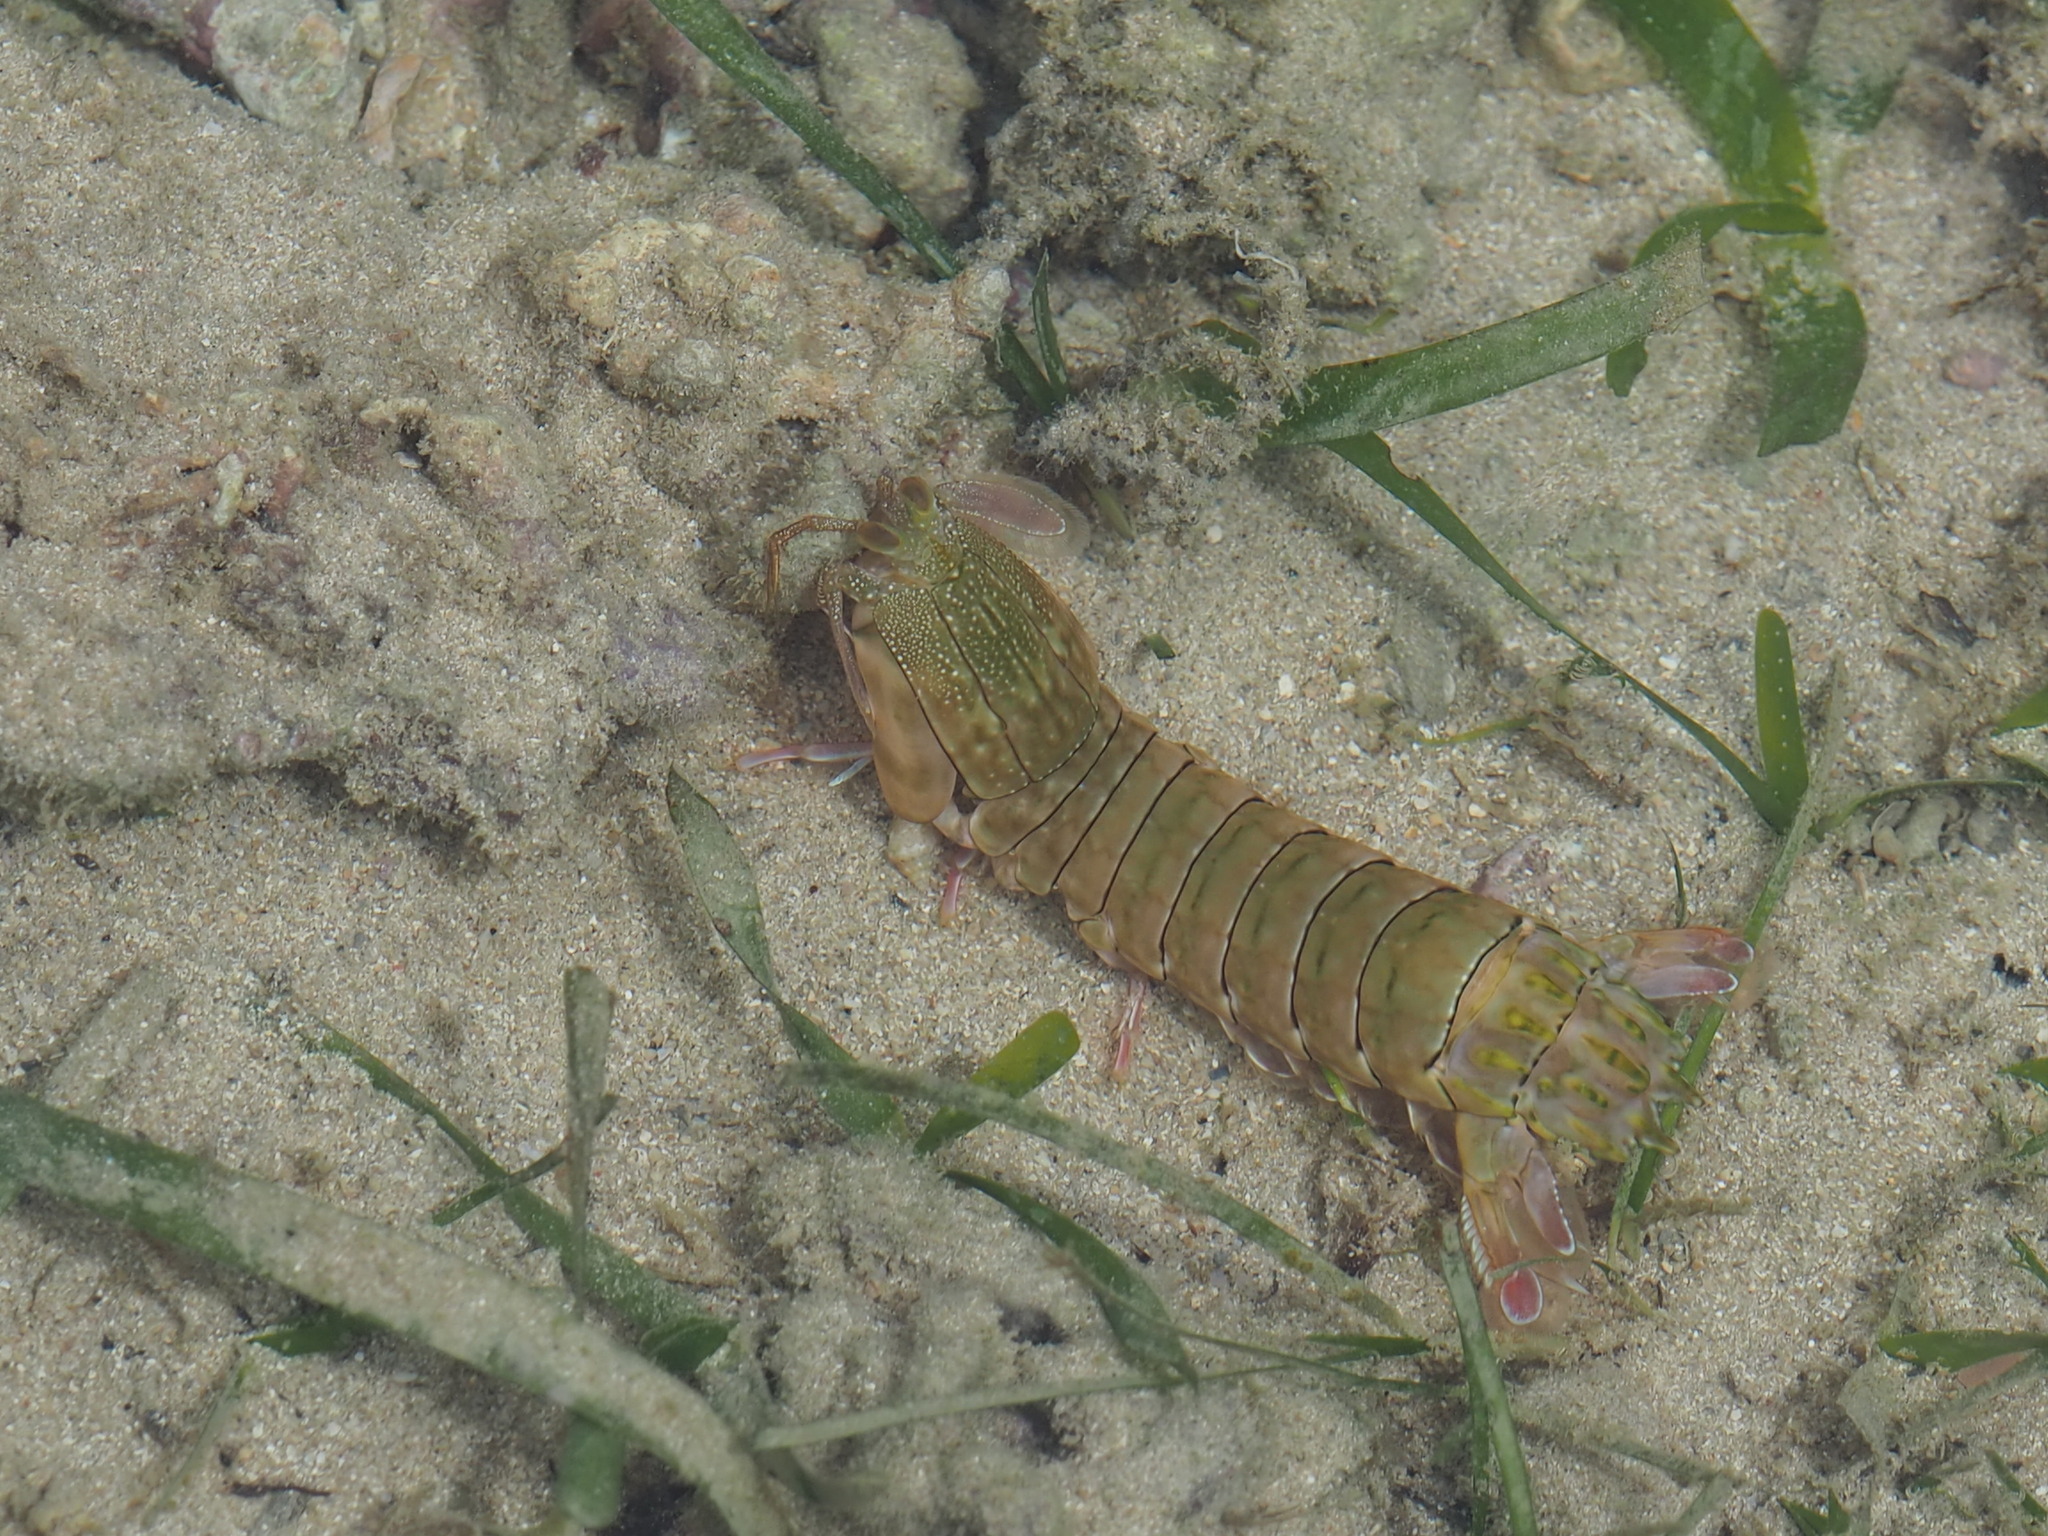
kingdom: Animalia
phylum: Arthropoda
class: Malacostraca
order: Stomatopoda
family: Gonodactylidae
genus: Gonodactylus
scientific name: Gonodactylus chiragra
